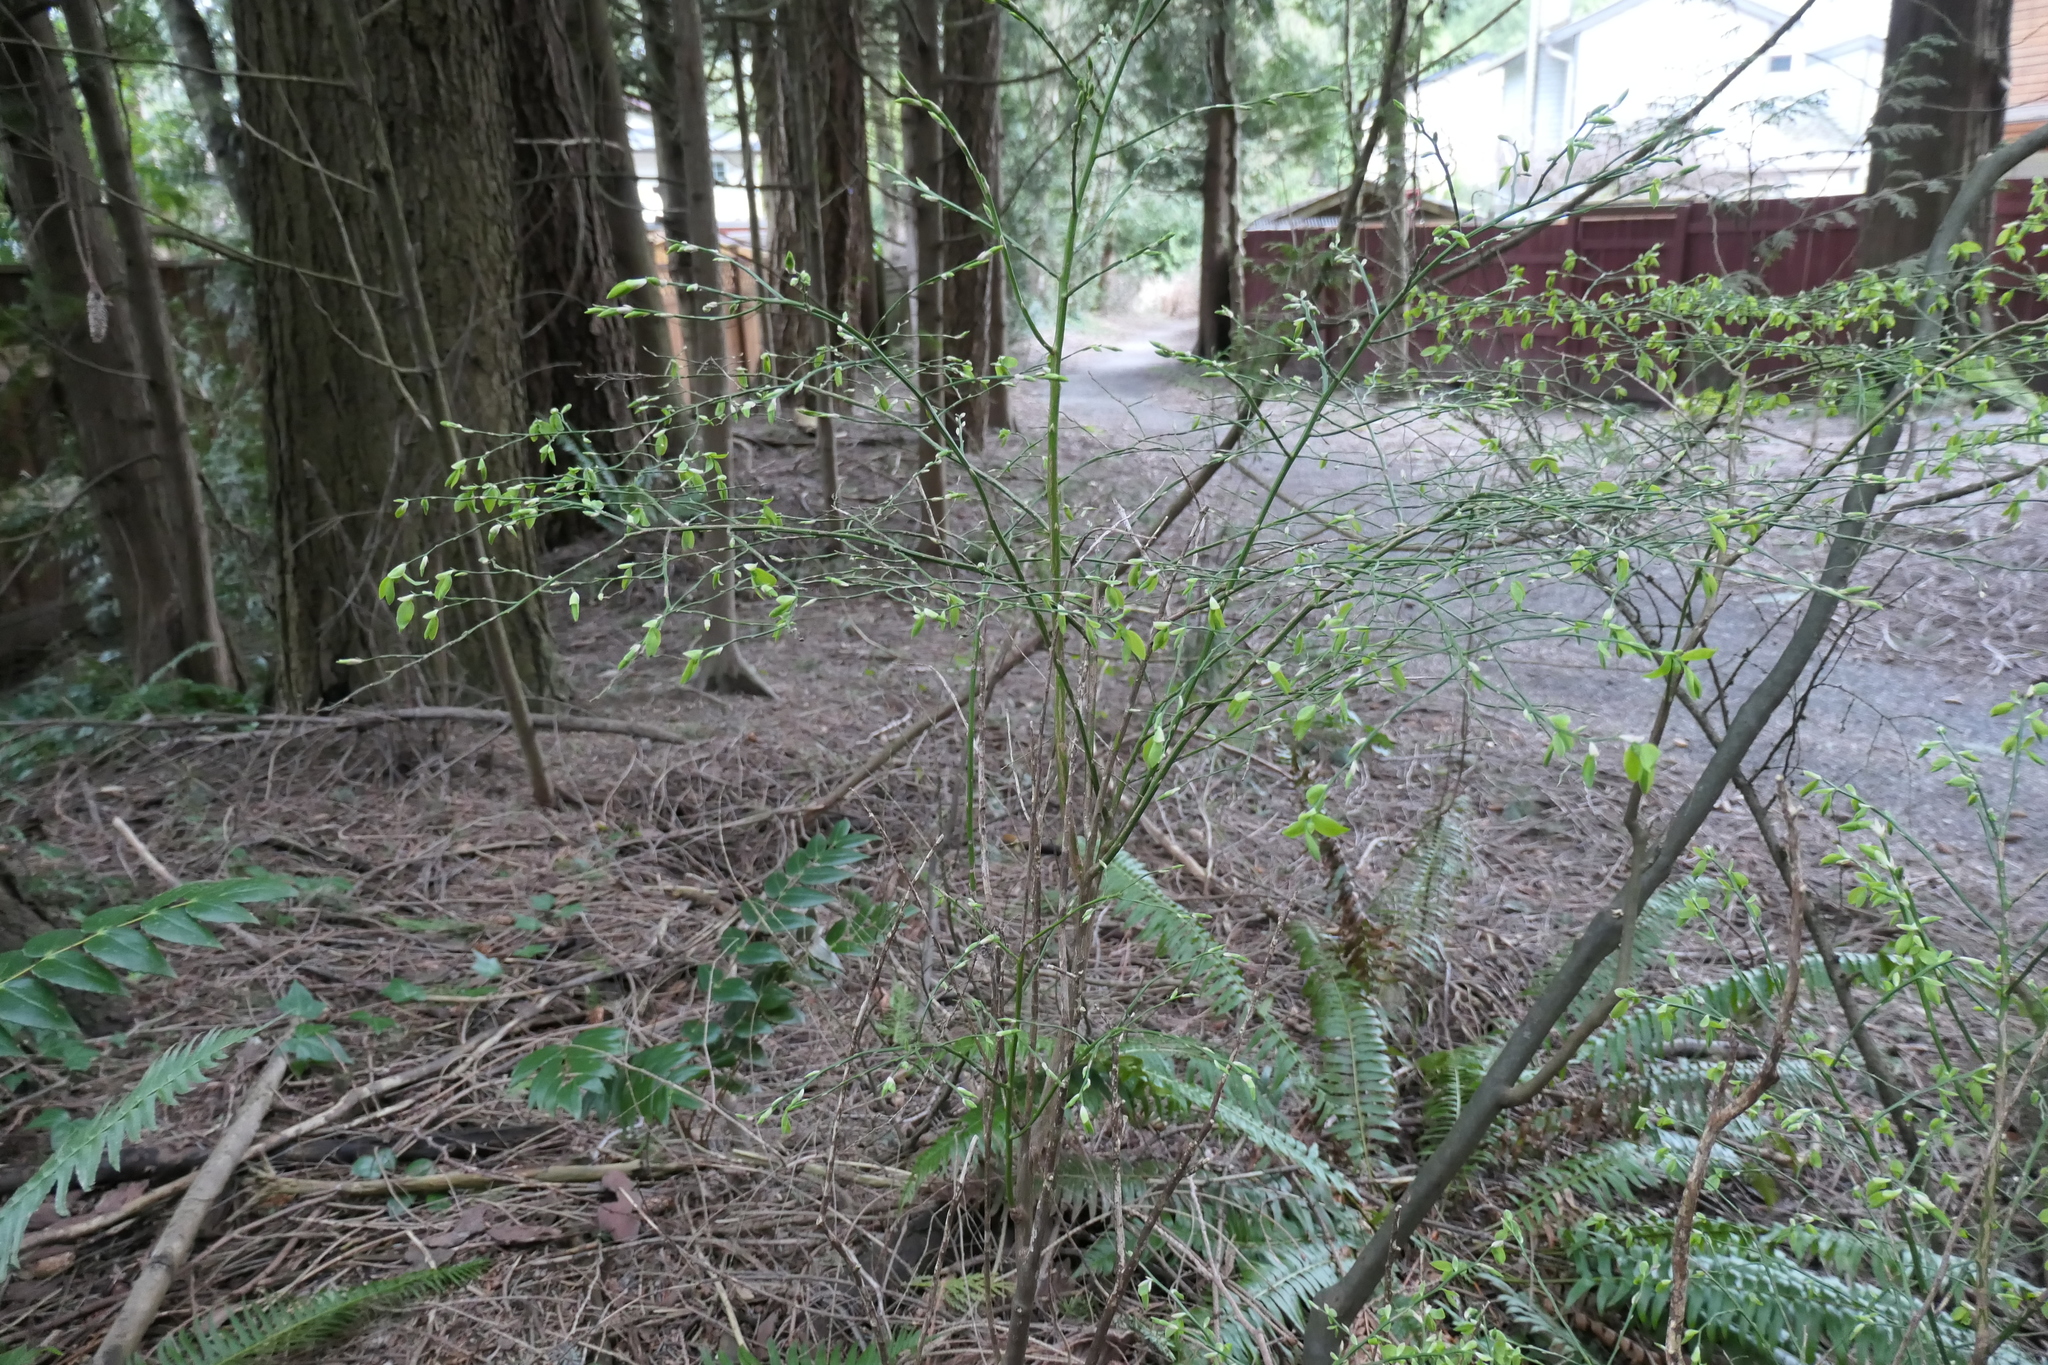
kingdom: Plantae
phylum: Tracheophyta
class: Magnoliopsida
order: Ericales
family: Ericaceae
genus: Vaccinium
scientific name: Vaccinium parvifolium
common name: Red-huckleberry
